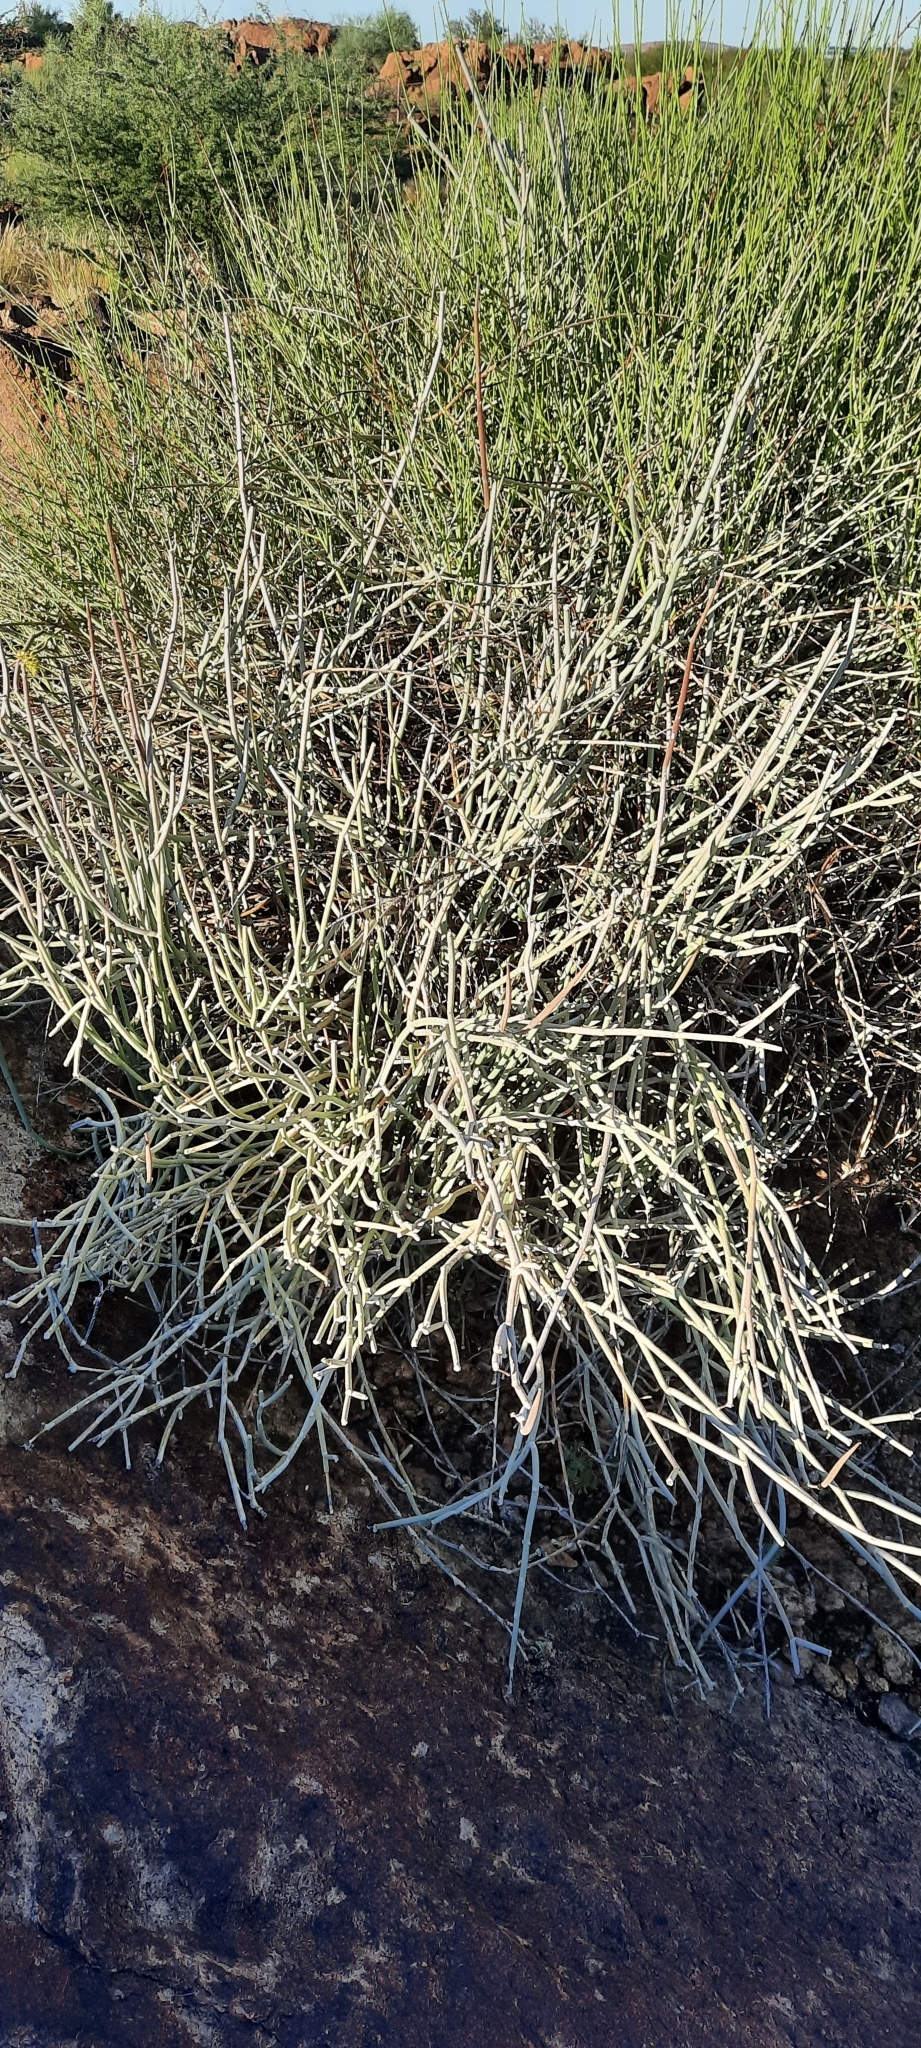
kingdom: Plantae
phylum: Tracheophyta
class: Magnoliopsida
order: Gentianales
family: Apocynaceae
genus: Cynanchum
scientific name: Cynanchum viminale
